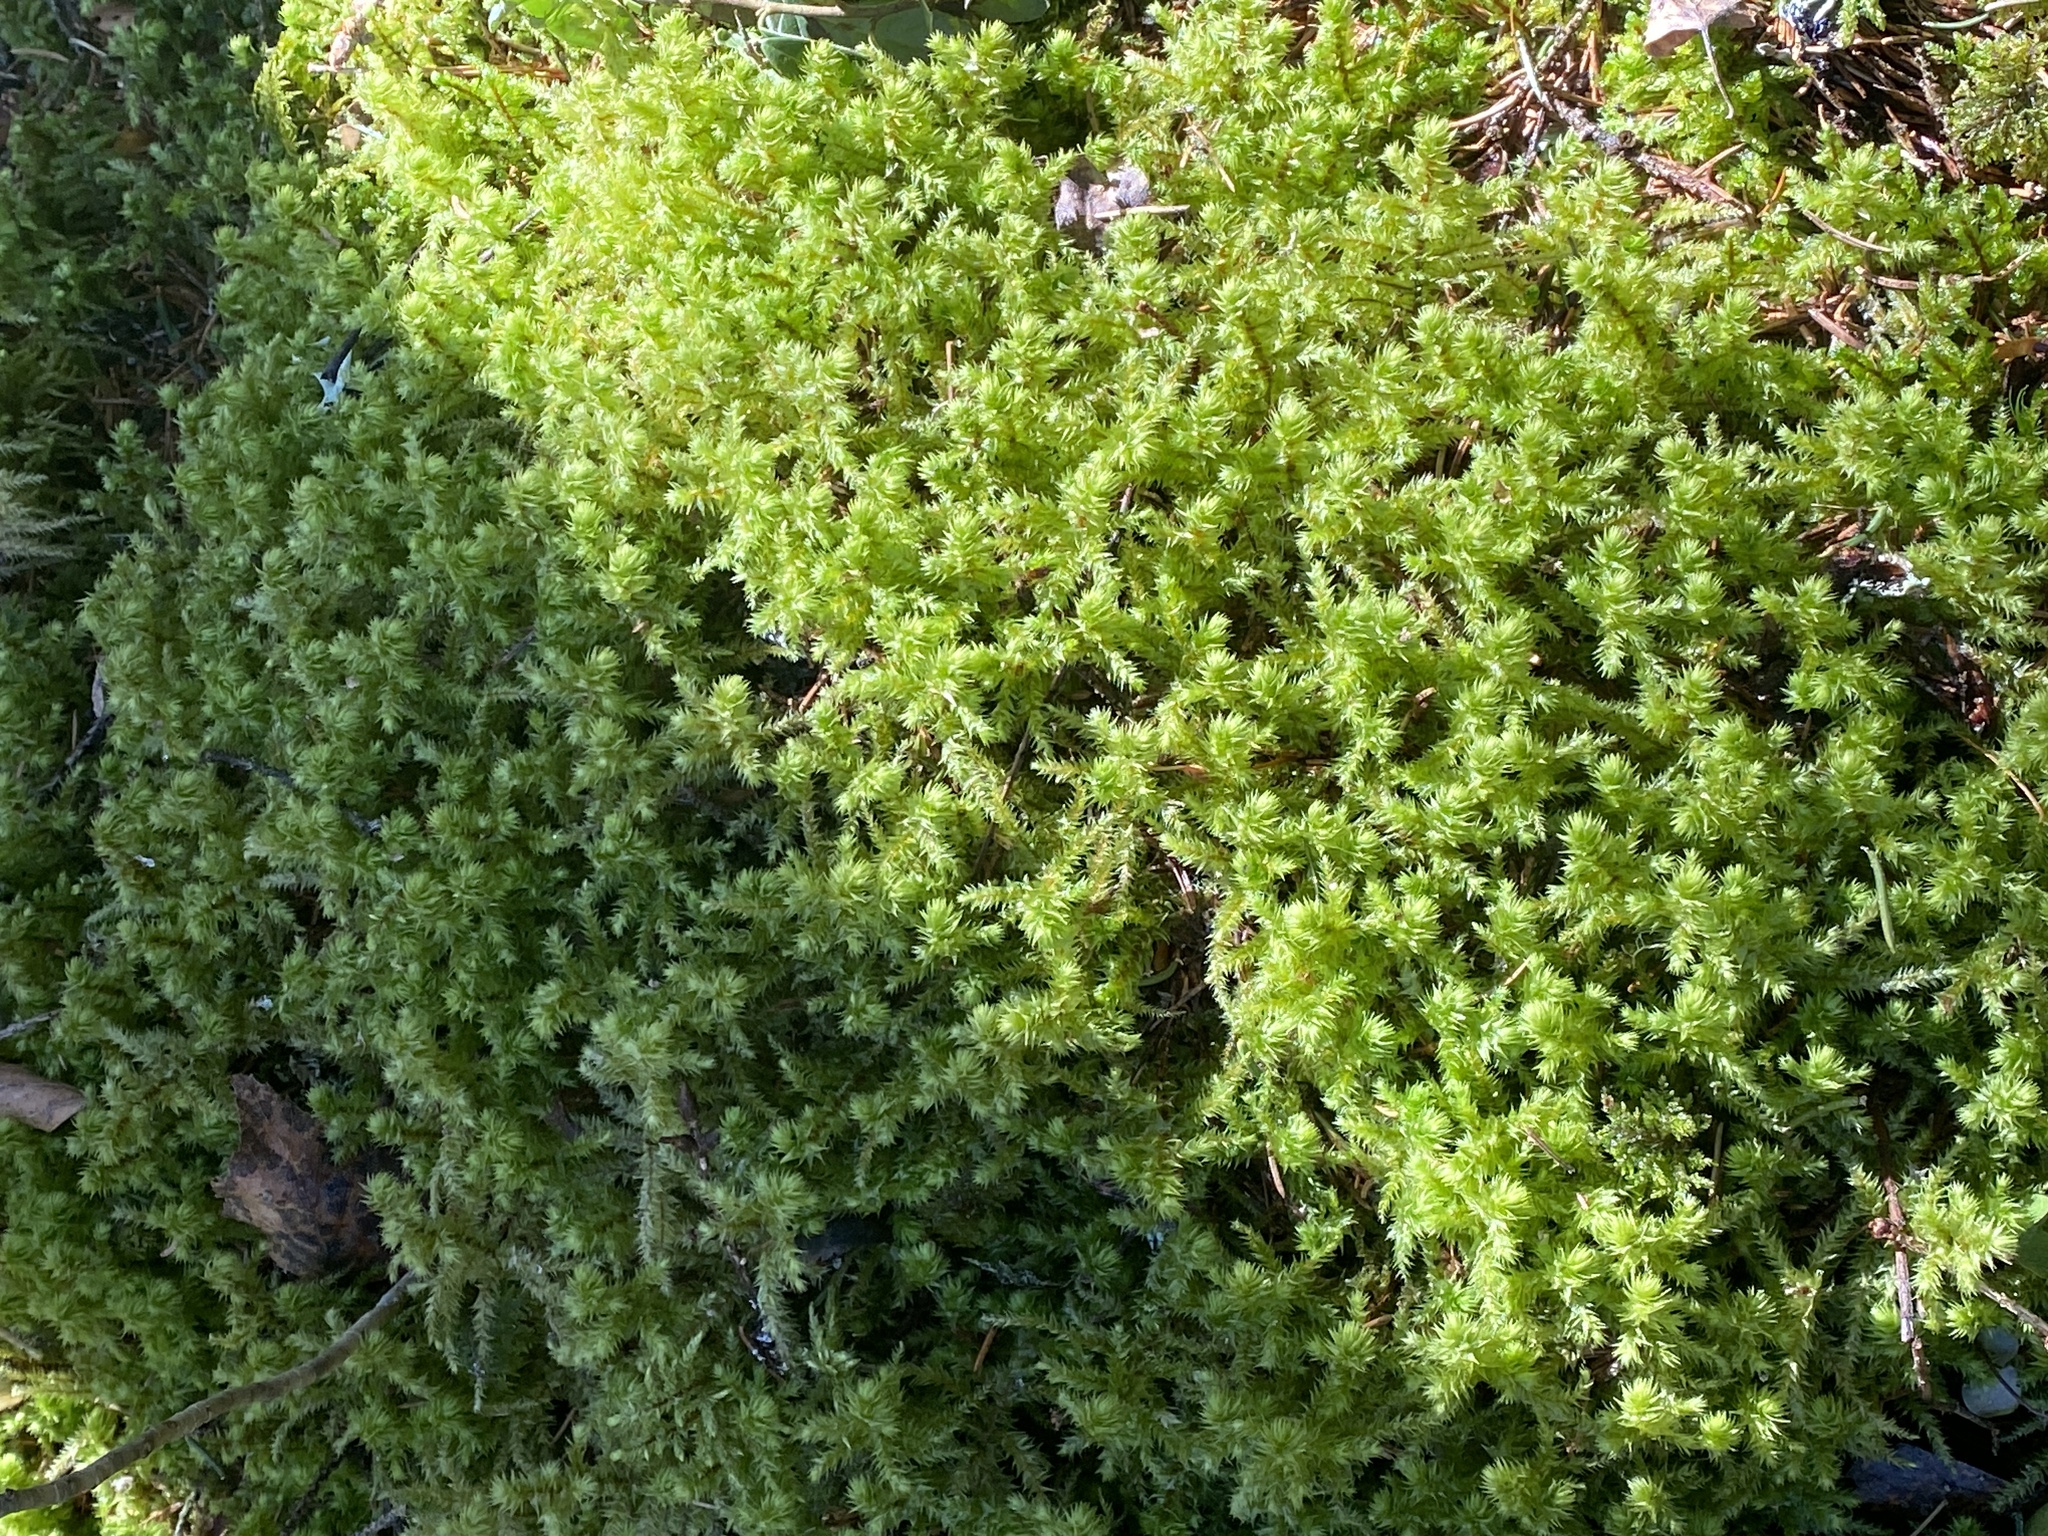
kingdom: Plantae
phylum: Bryophyta
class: Bryopsida
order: Hypnales
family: Hylocomiaceae
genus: Hylocomiadelphus
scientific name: Hylocomiadelphus triquetrus
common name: Rough goose neck moss
